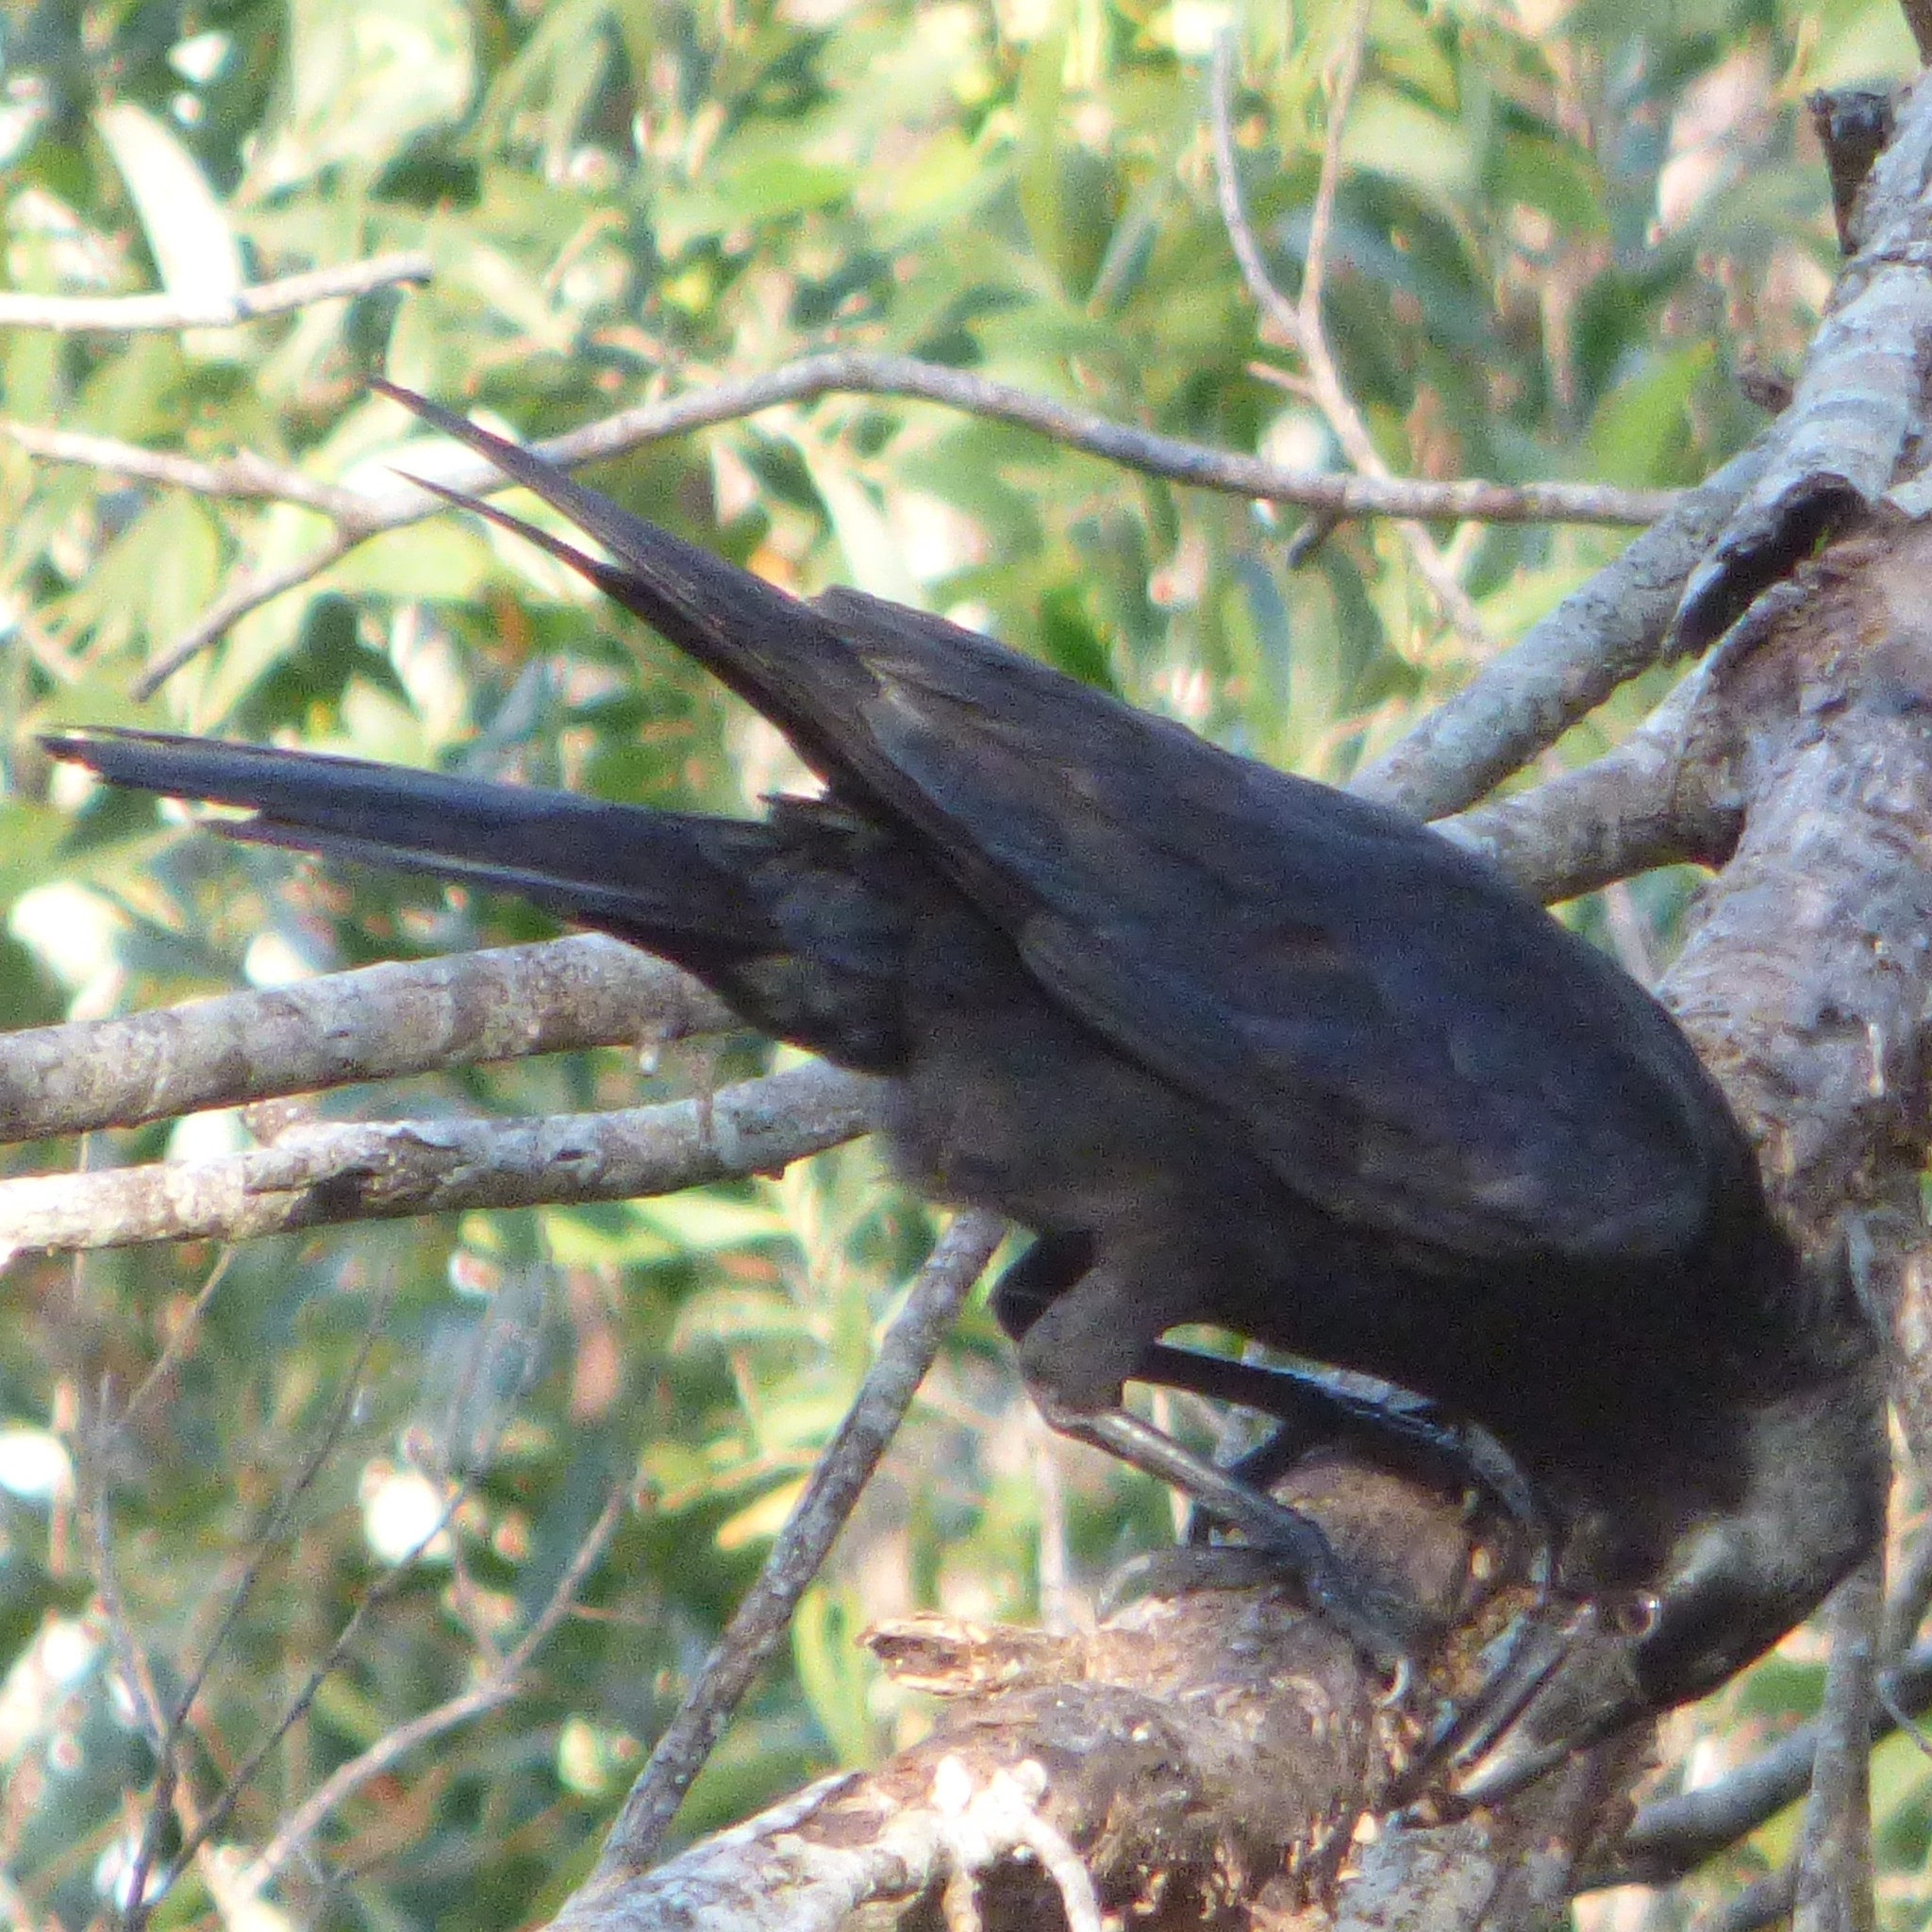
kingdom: Animalia
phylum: Chordata
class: Aves
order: Passeriformes
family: Corvidae
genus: Corvus
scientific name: Corvus orru
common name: Torresian crow
